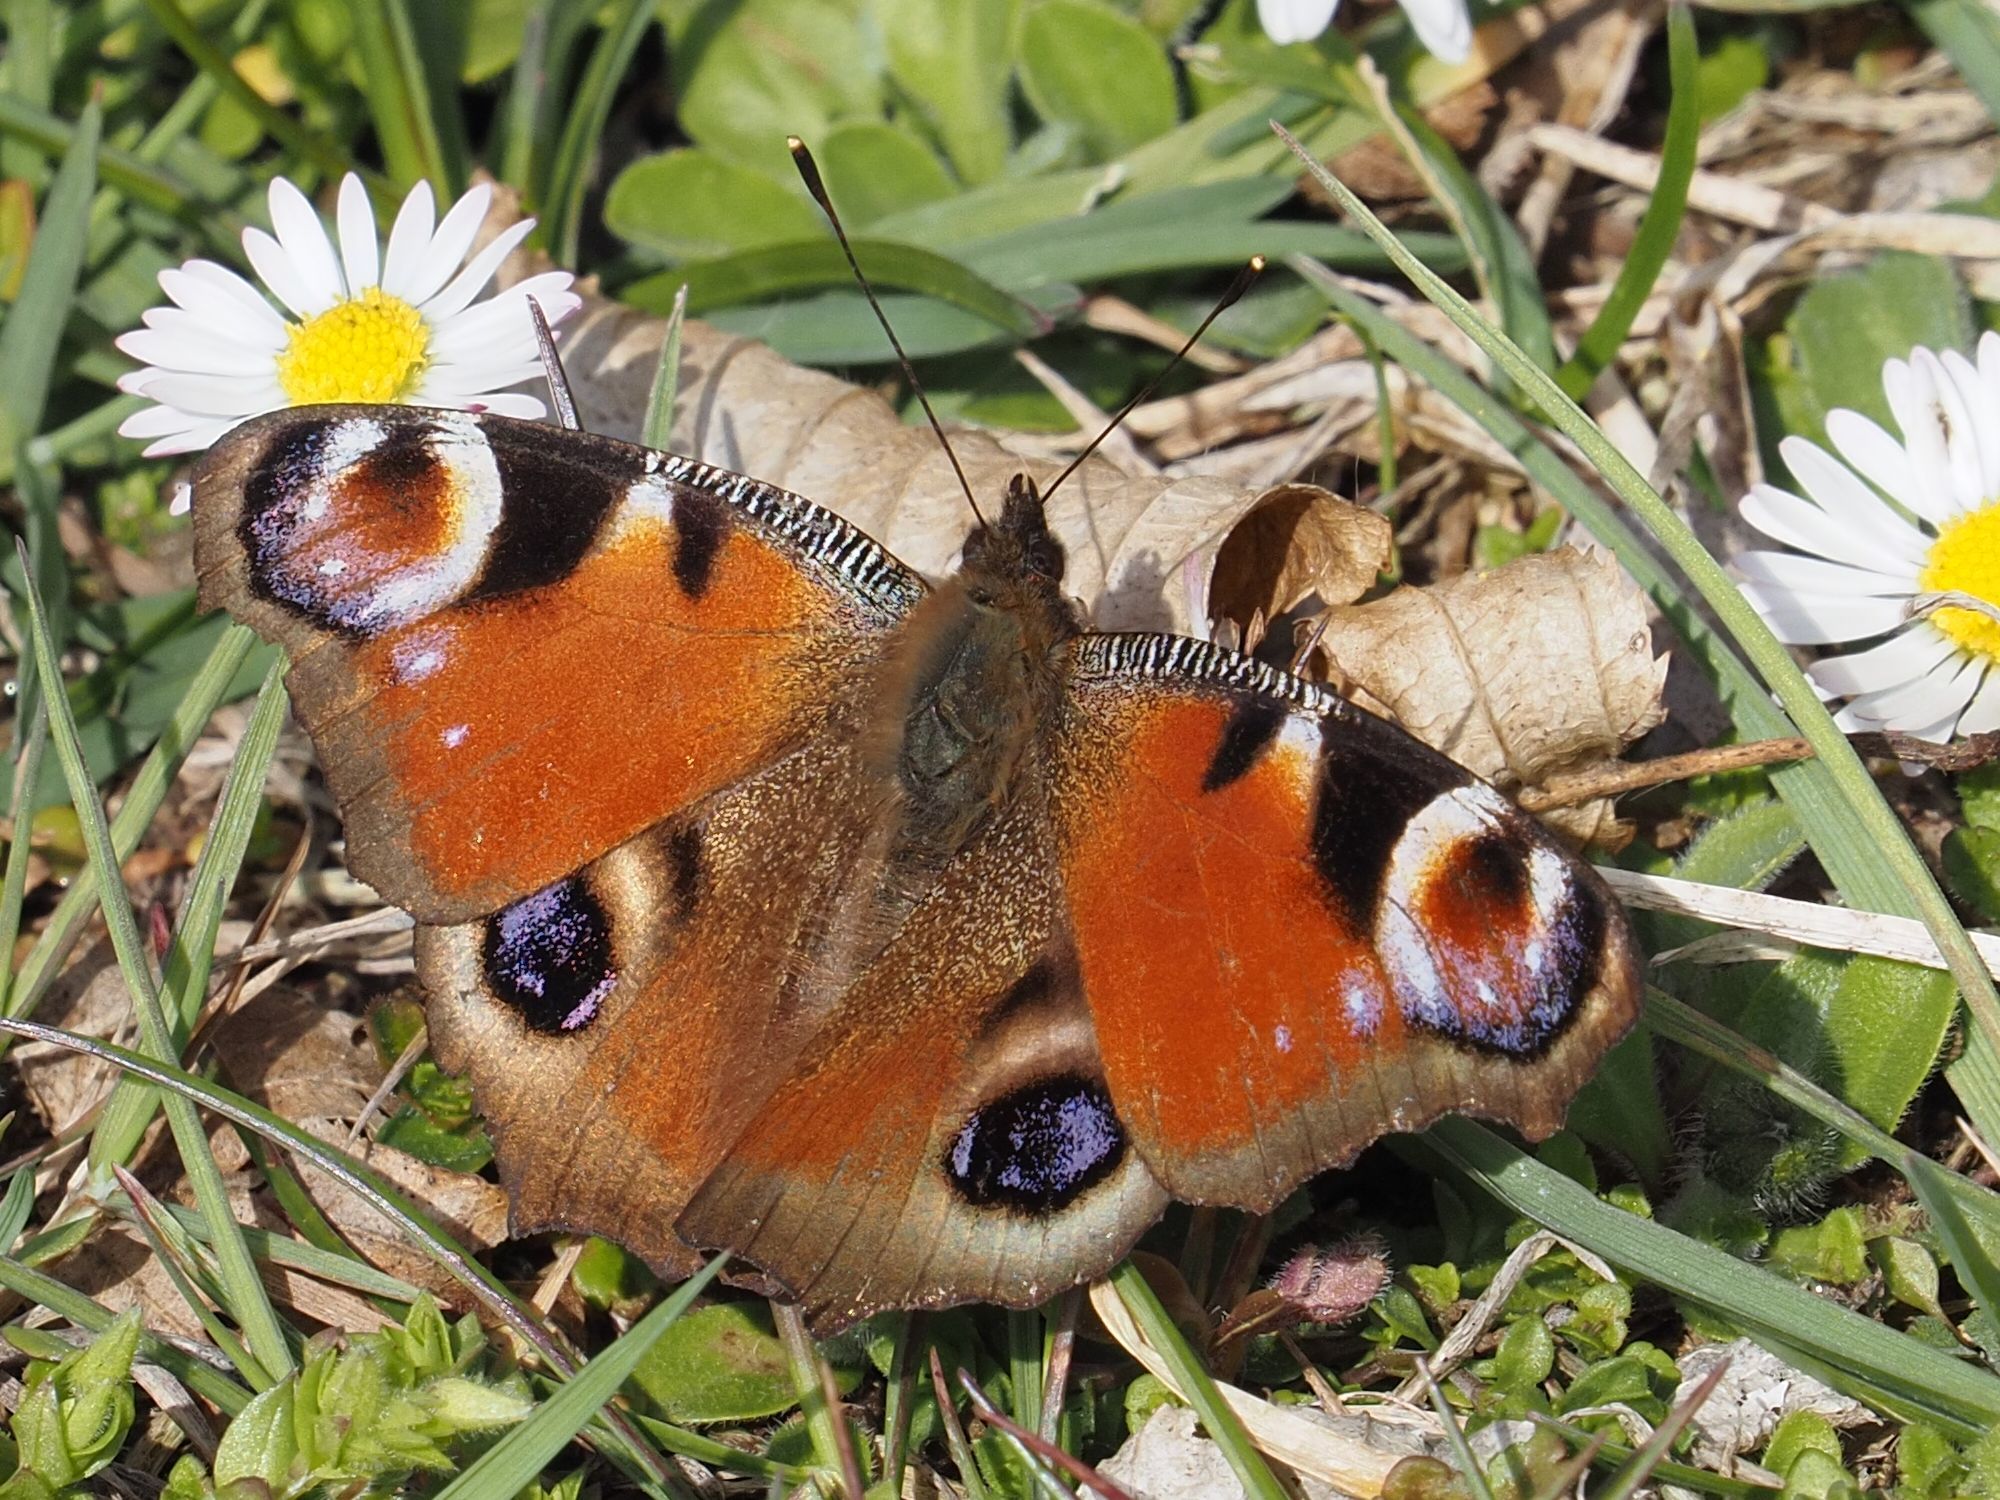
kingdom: Animalia
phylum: Arthropoda
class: Insecta
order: Lepidoptera
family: Nymphalidae
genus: Aglais
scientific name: Aglais io
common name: Peacock
